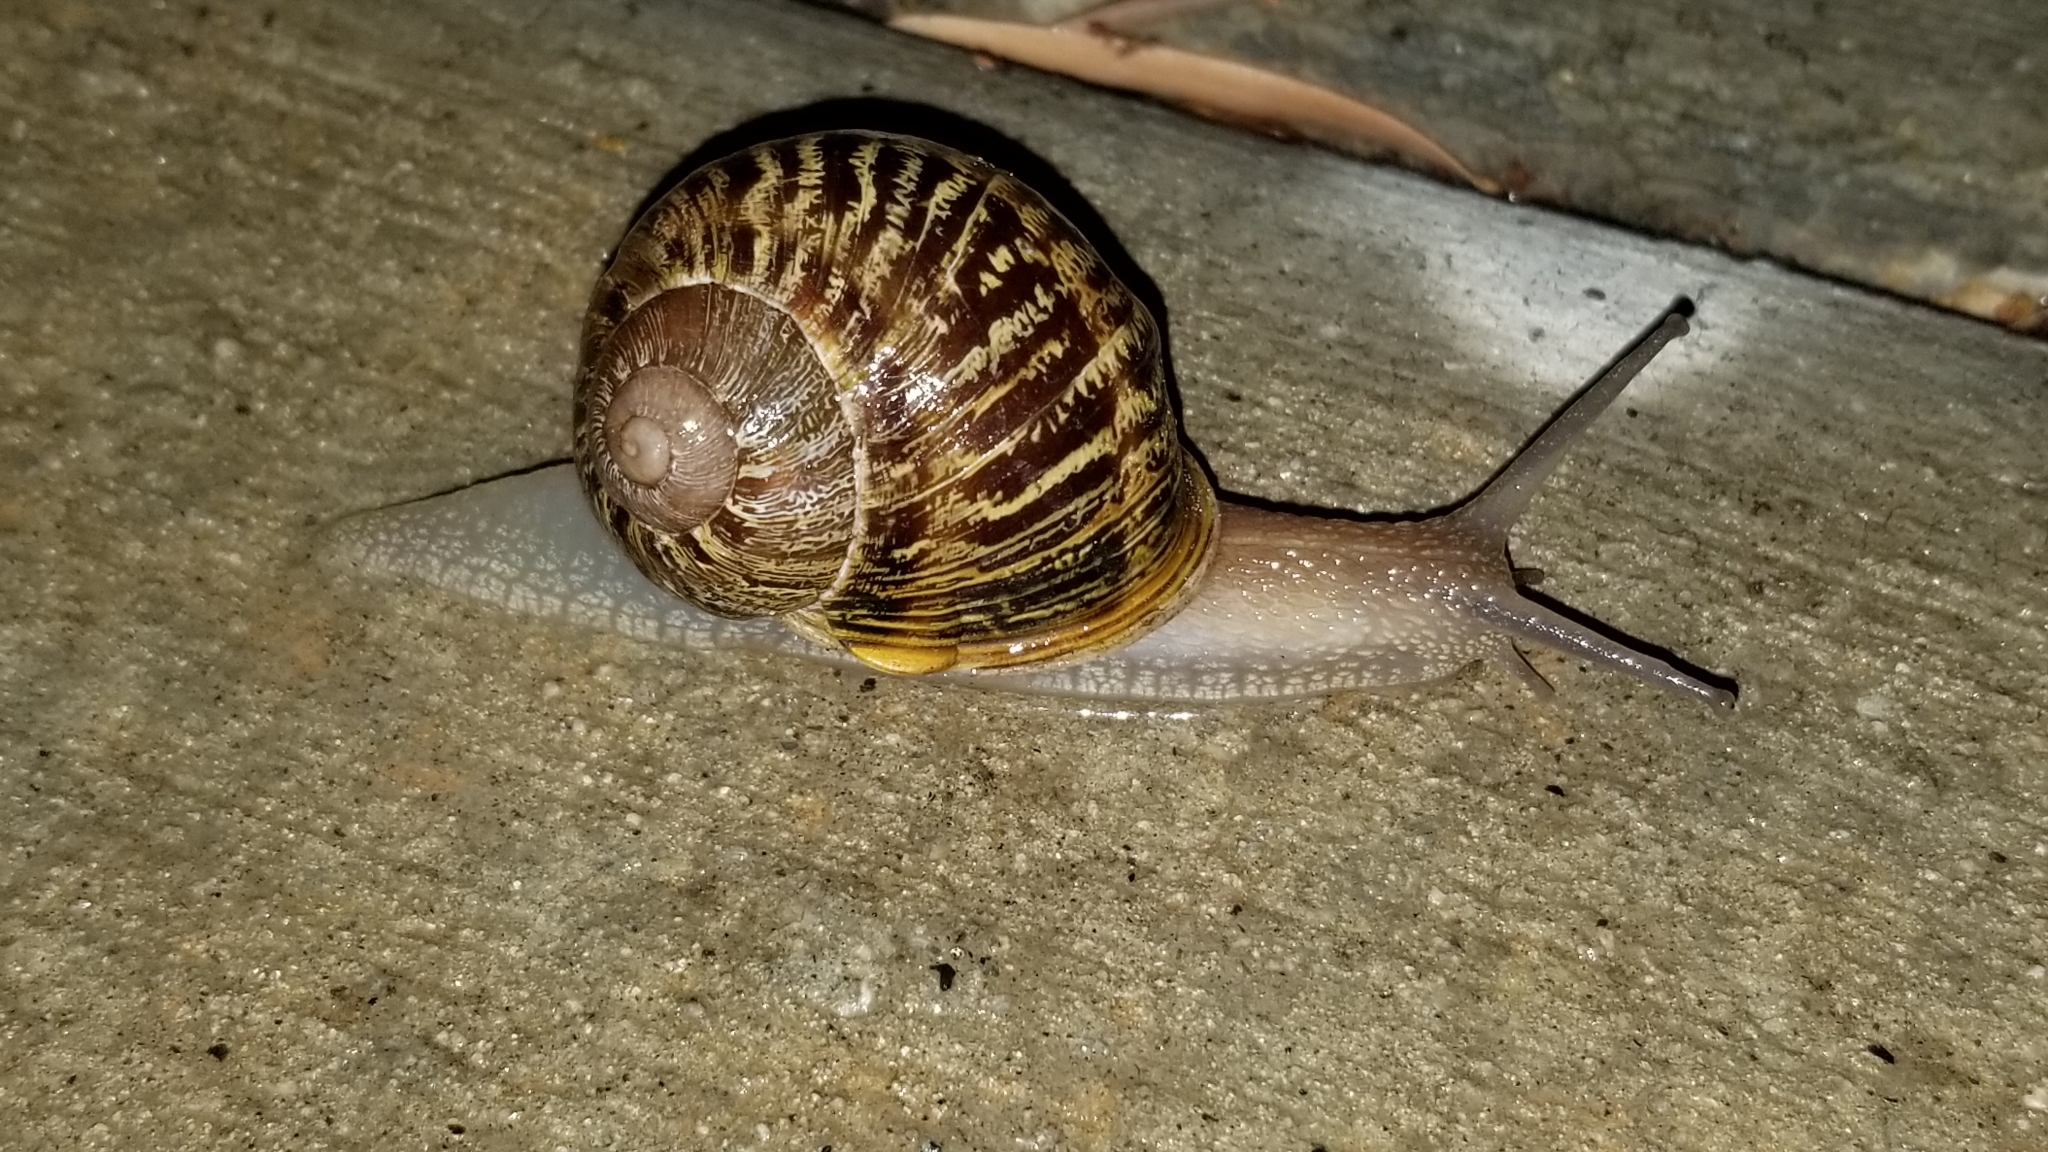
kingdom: Animalia
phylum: Mollusca
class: Gastropoda
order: Stylommatophora
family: Helicidae
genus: Cornu
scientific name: Cornu aspersum
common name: Brown garden snail
